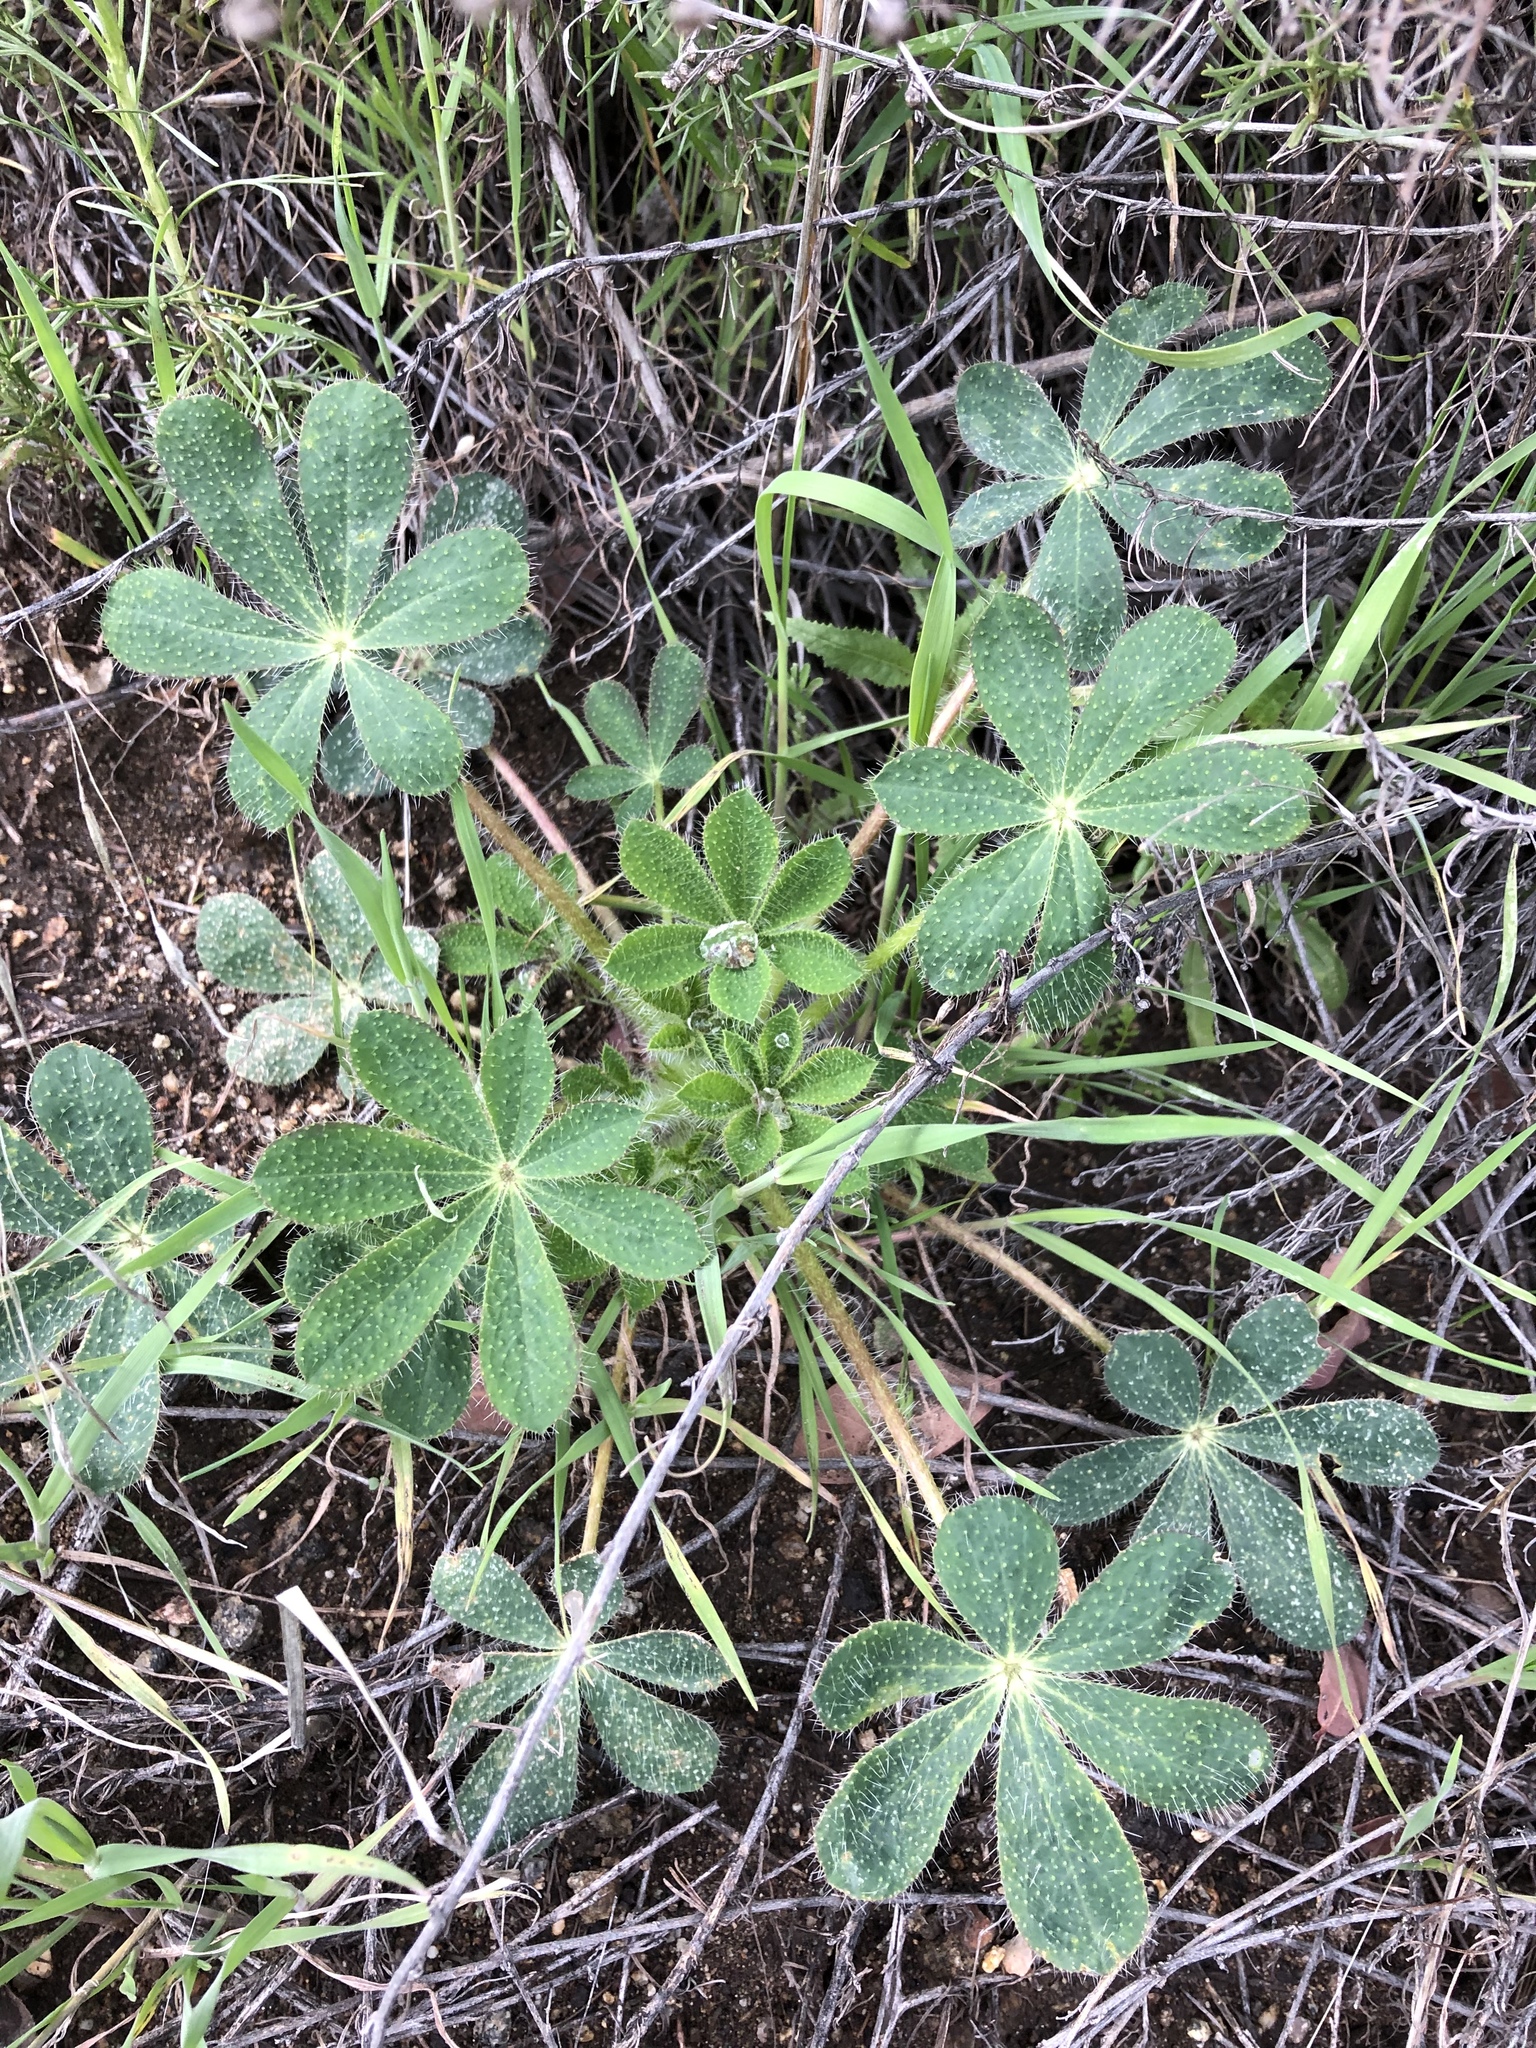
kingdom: Plantae
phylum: Tracheophyta
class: Magnoliopsida
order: Fabales
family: Fabaceae
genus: Lupinus
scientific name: Lupinus hirsutissimus
